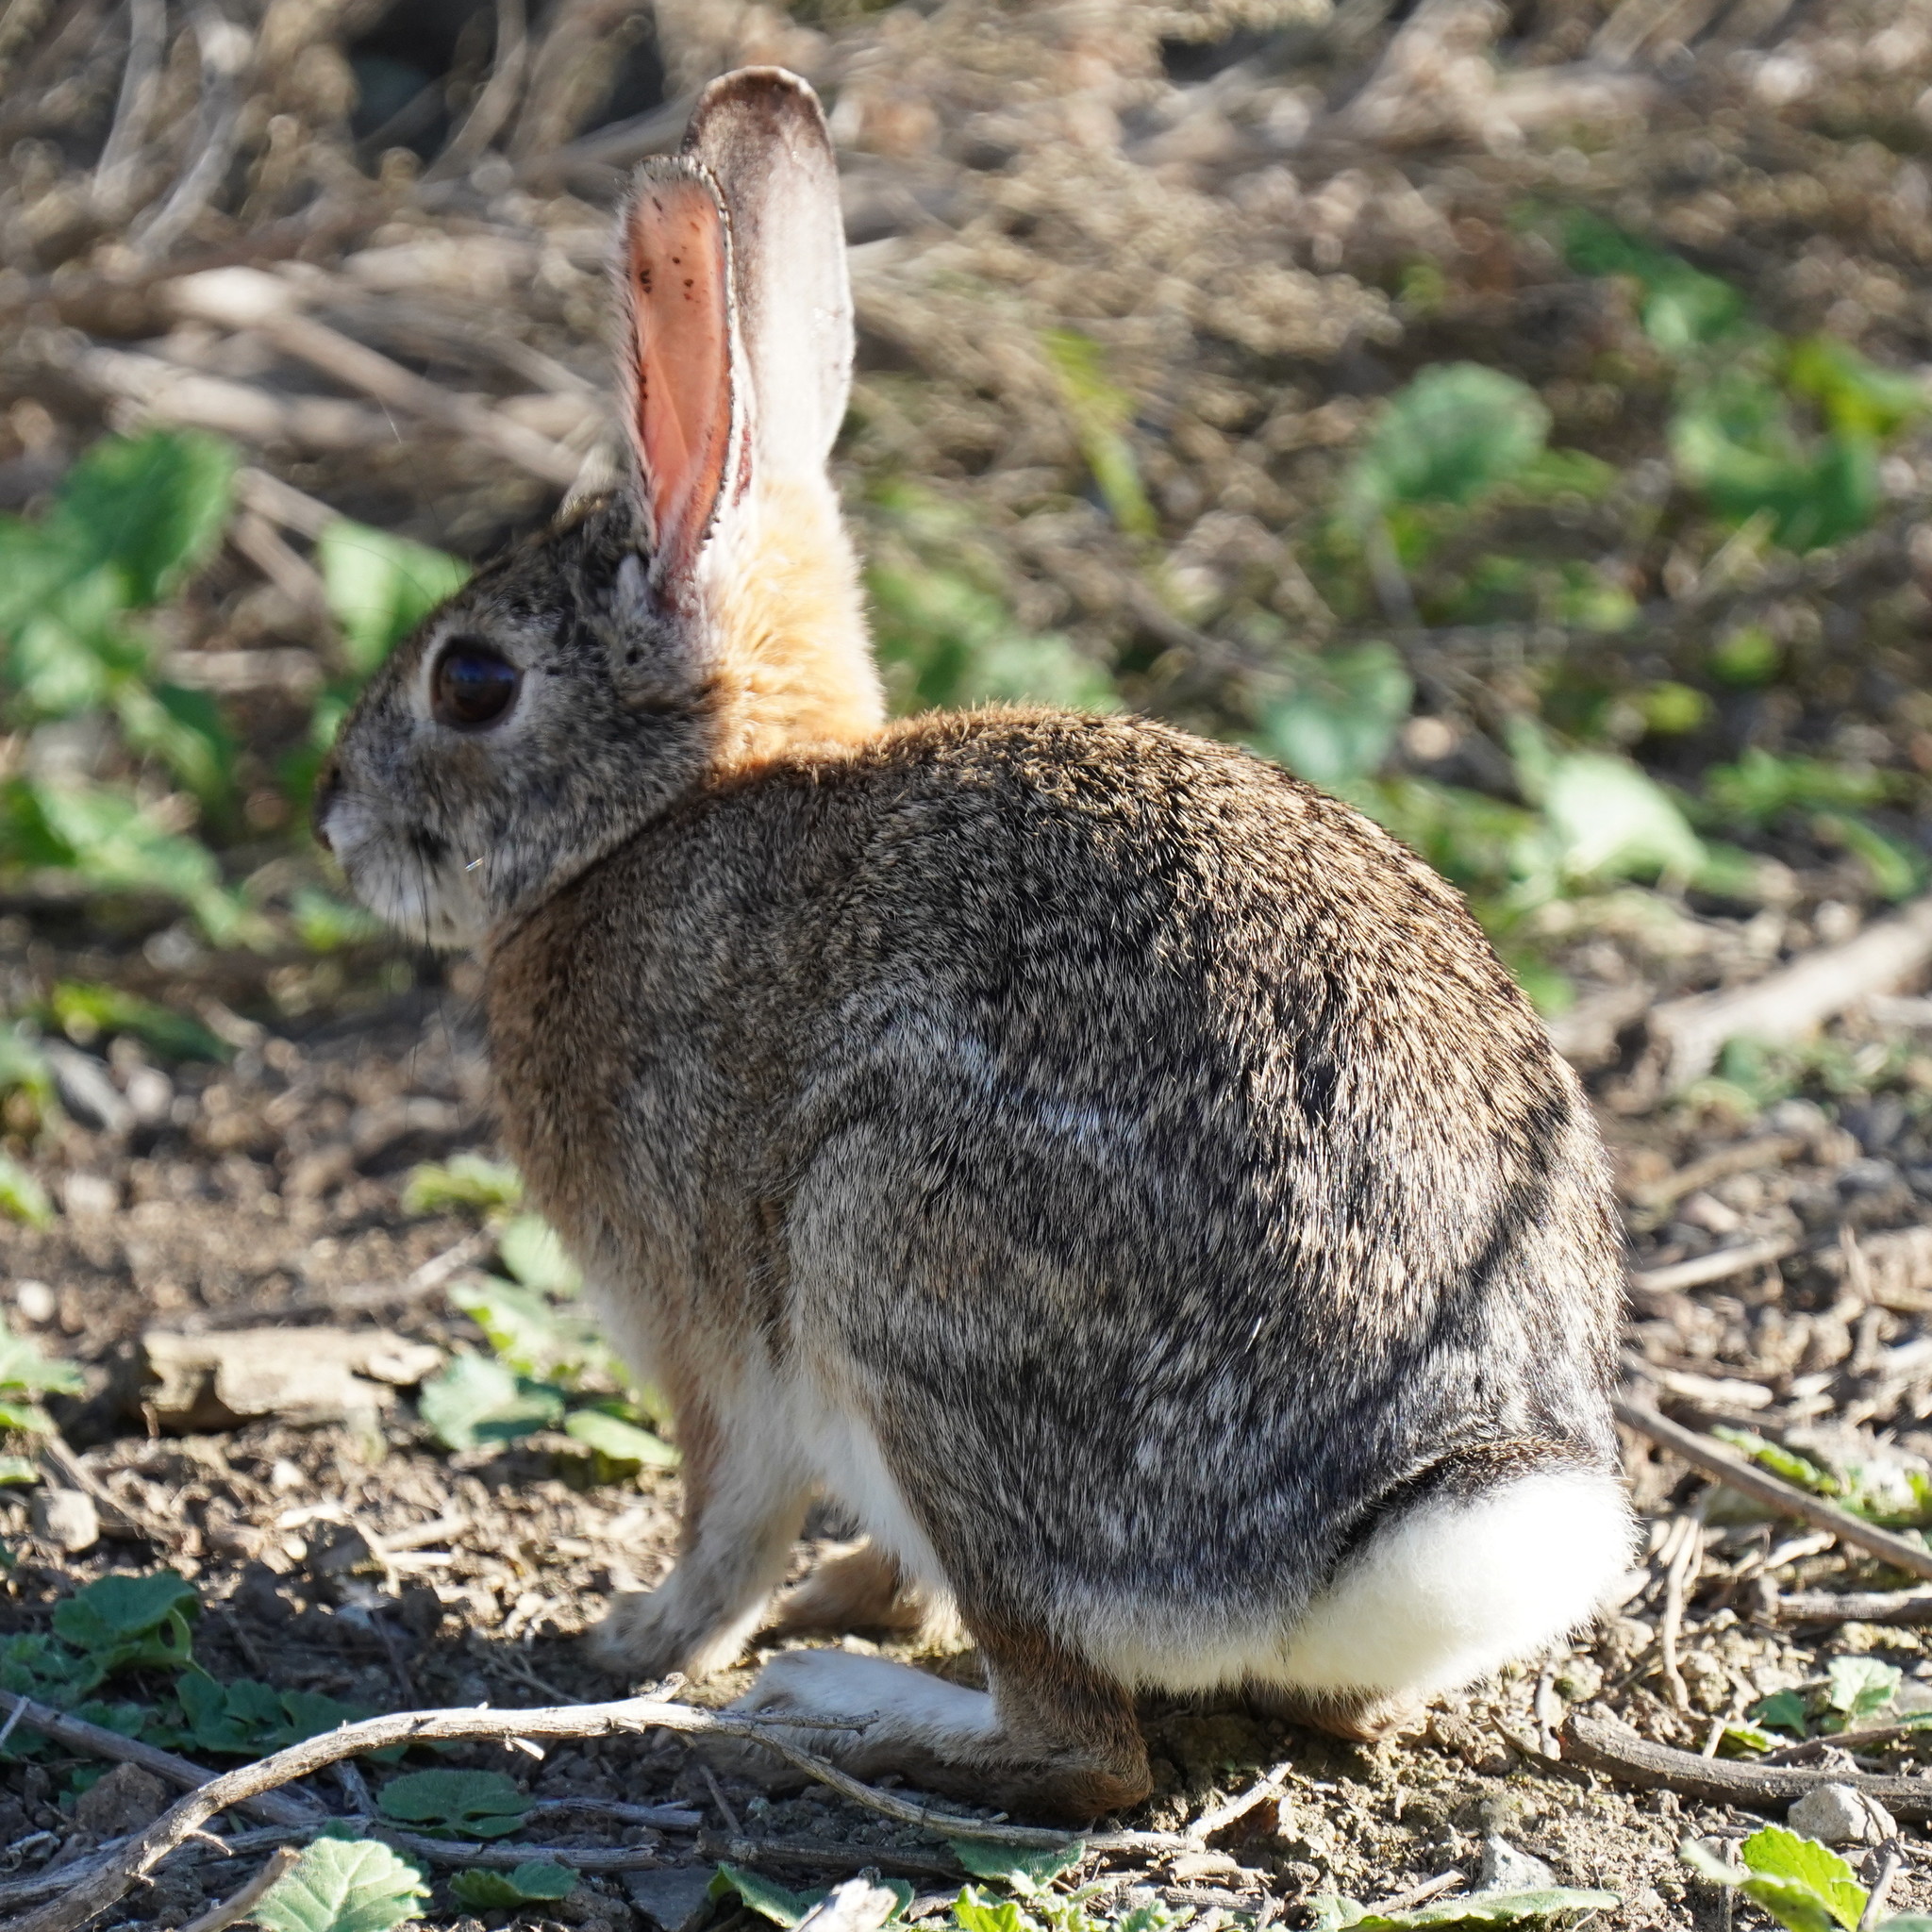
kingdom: Animalia
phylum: Chordata
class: Mammalia
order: Lagomorpha
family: Leporidae
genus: Sylvilagus
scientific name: Sylvilagus audubonii
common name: Desert cottontail
